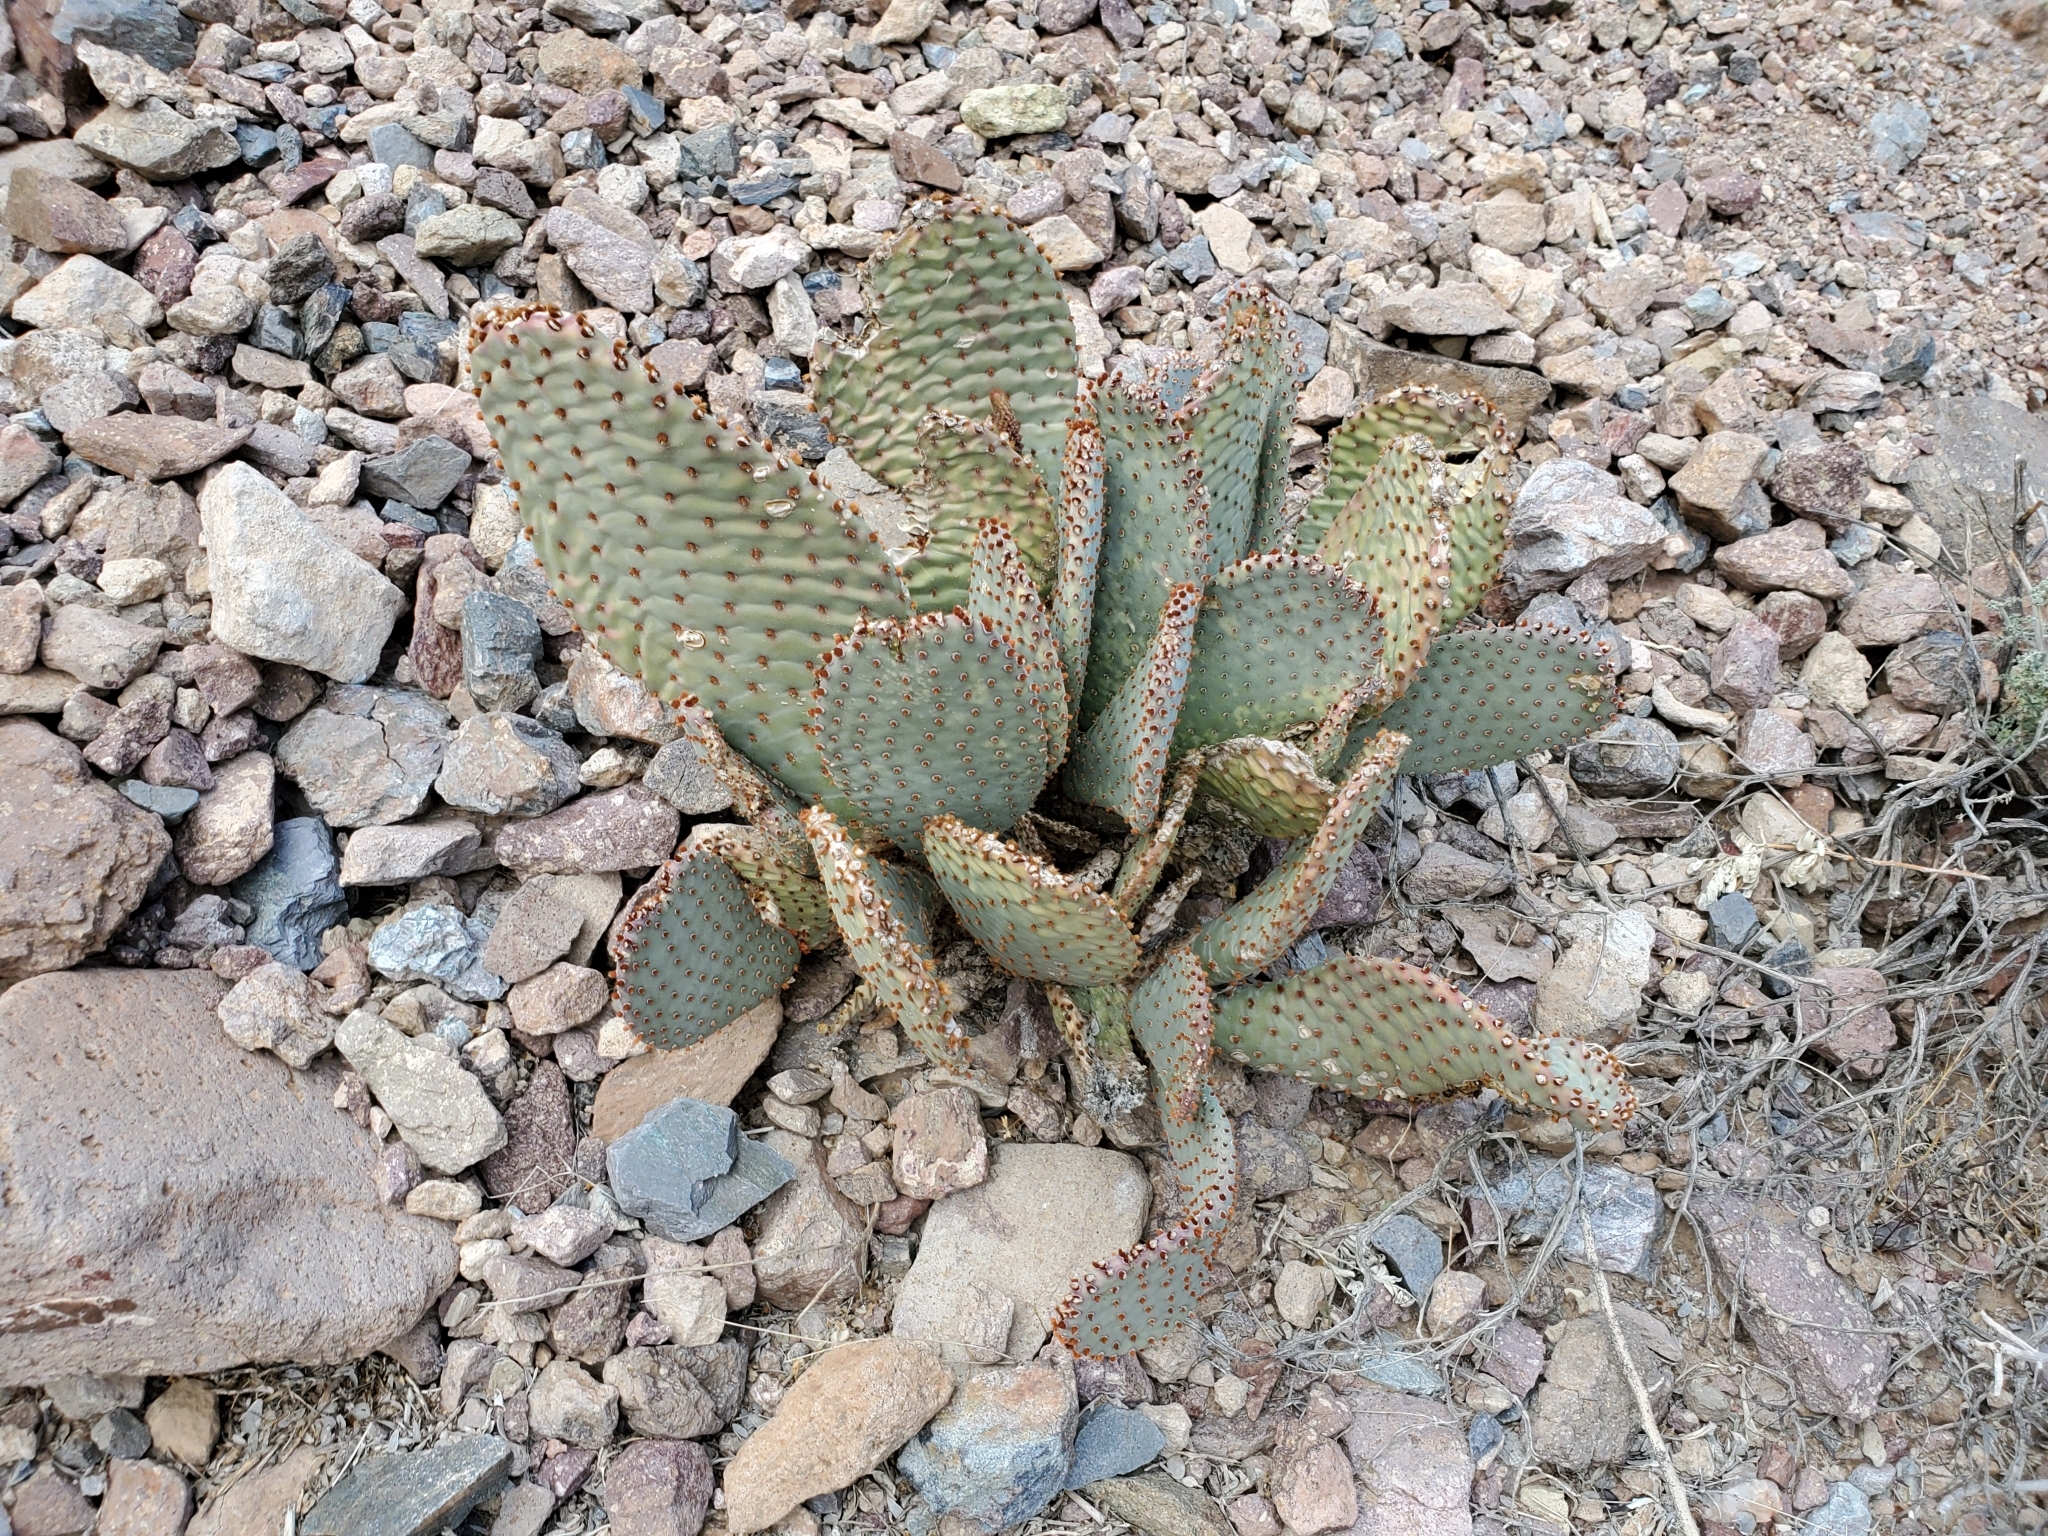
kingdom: Plantae
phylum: Tracheophyta
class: Magnoliopsida
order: Caryophyllales
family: Cactaceae
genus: Opuntia
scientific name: Opuntia basilaris
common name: Beavertail prickly-pear
